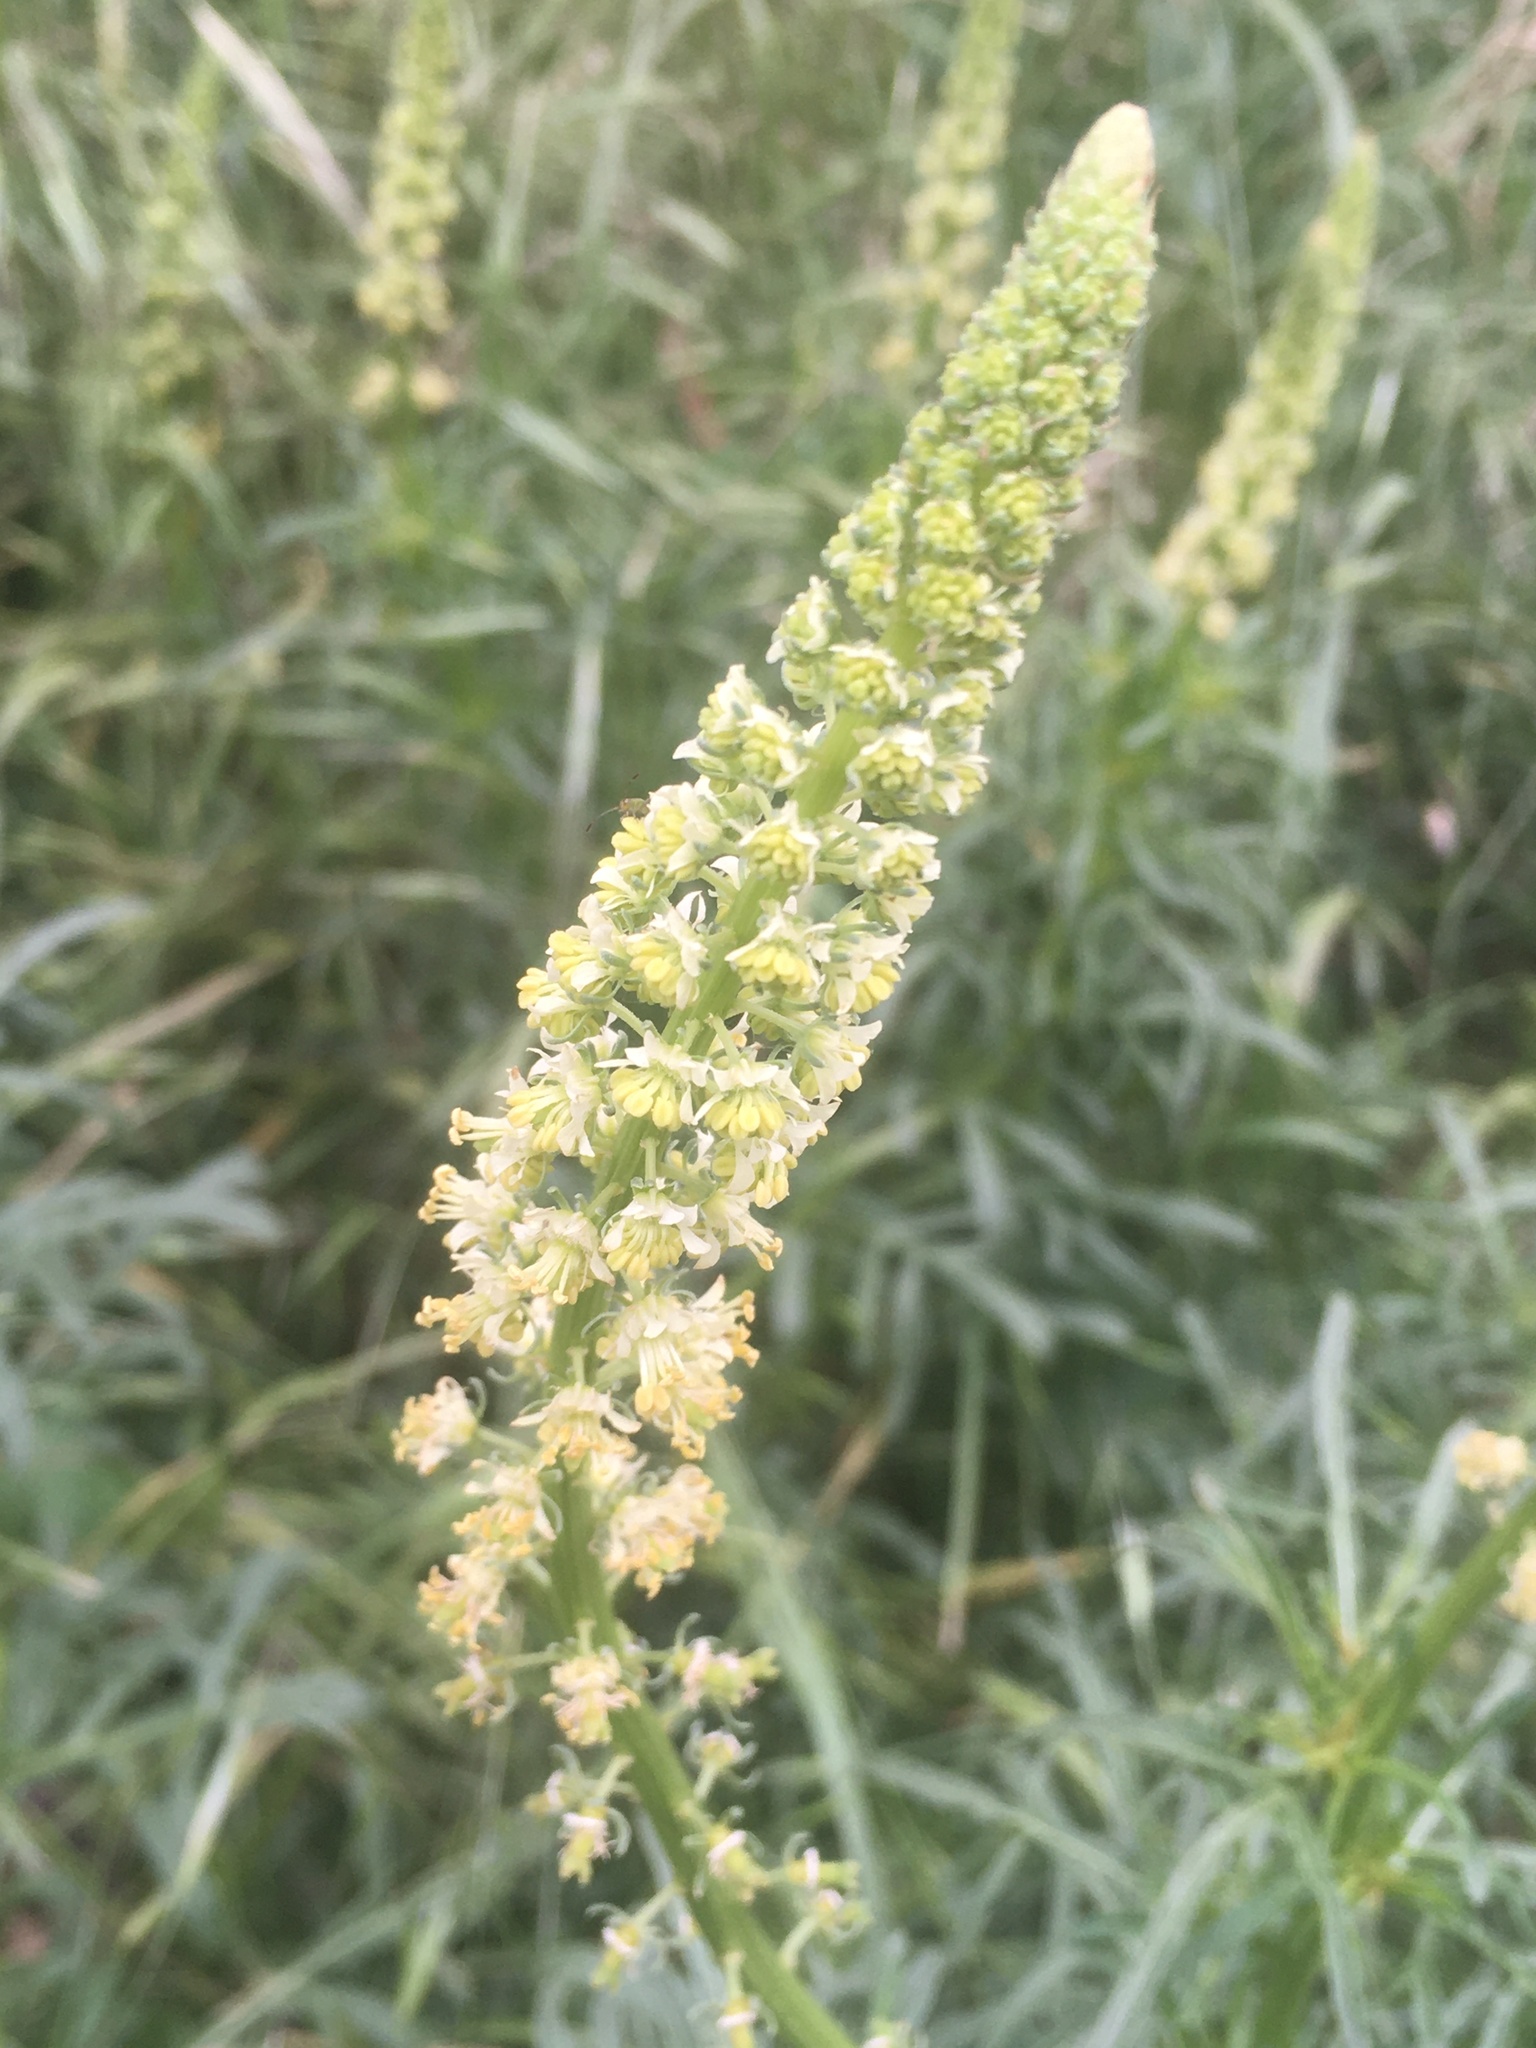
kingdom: Plantae
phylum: Tracheophyta
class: Magnoliopsida
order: Brassicales
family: Resedaceae
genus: Reseda
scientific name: Reseda lutea
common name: Wild mignonette
